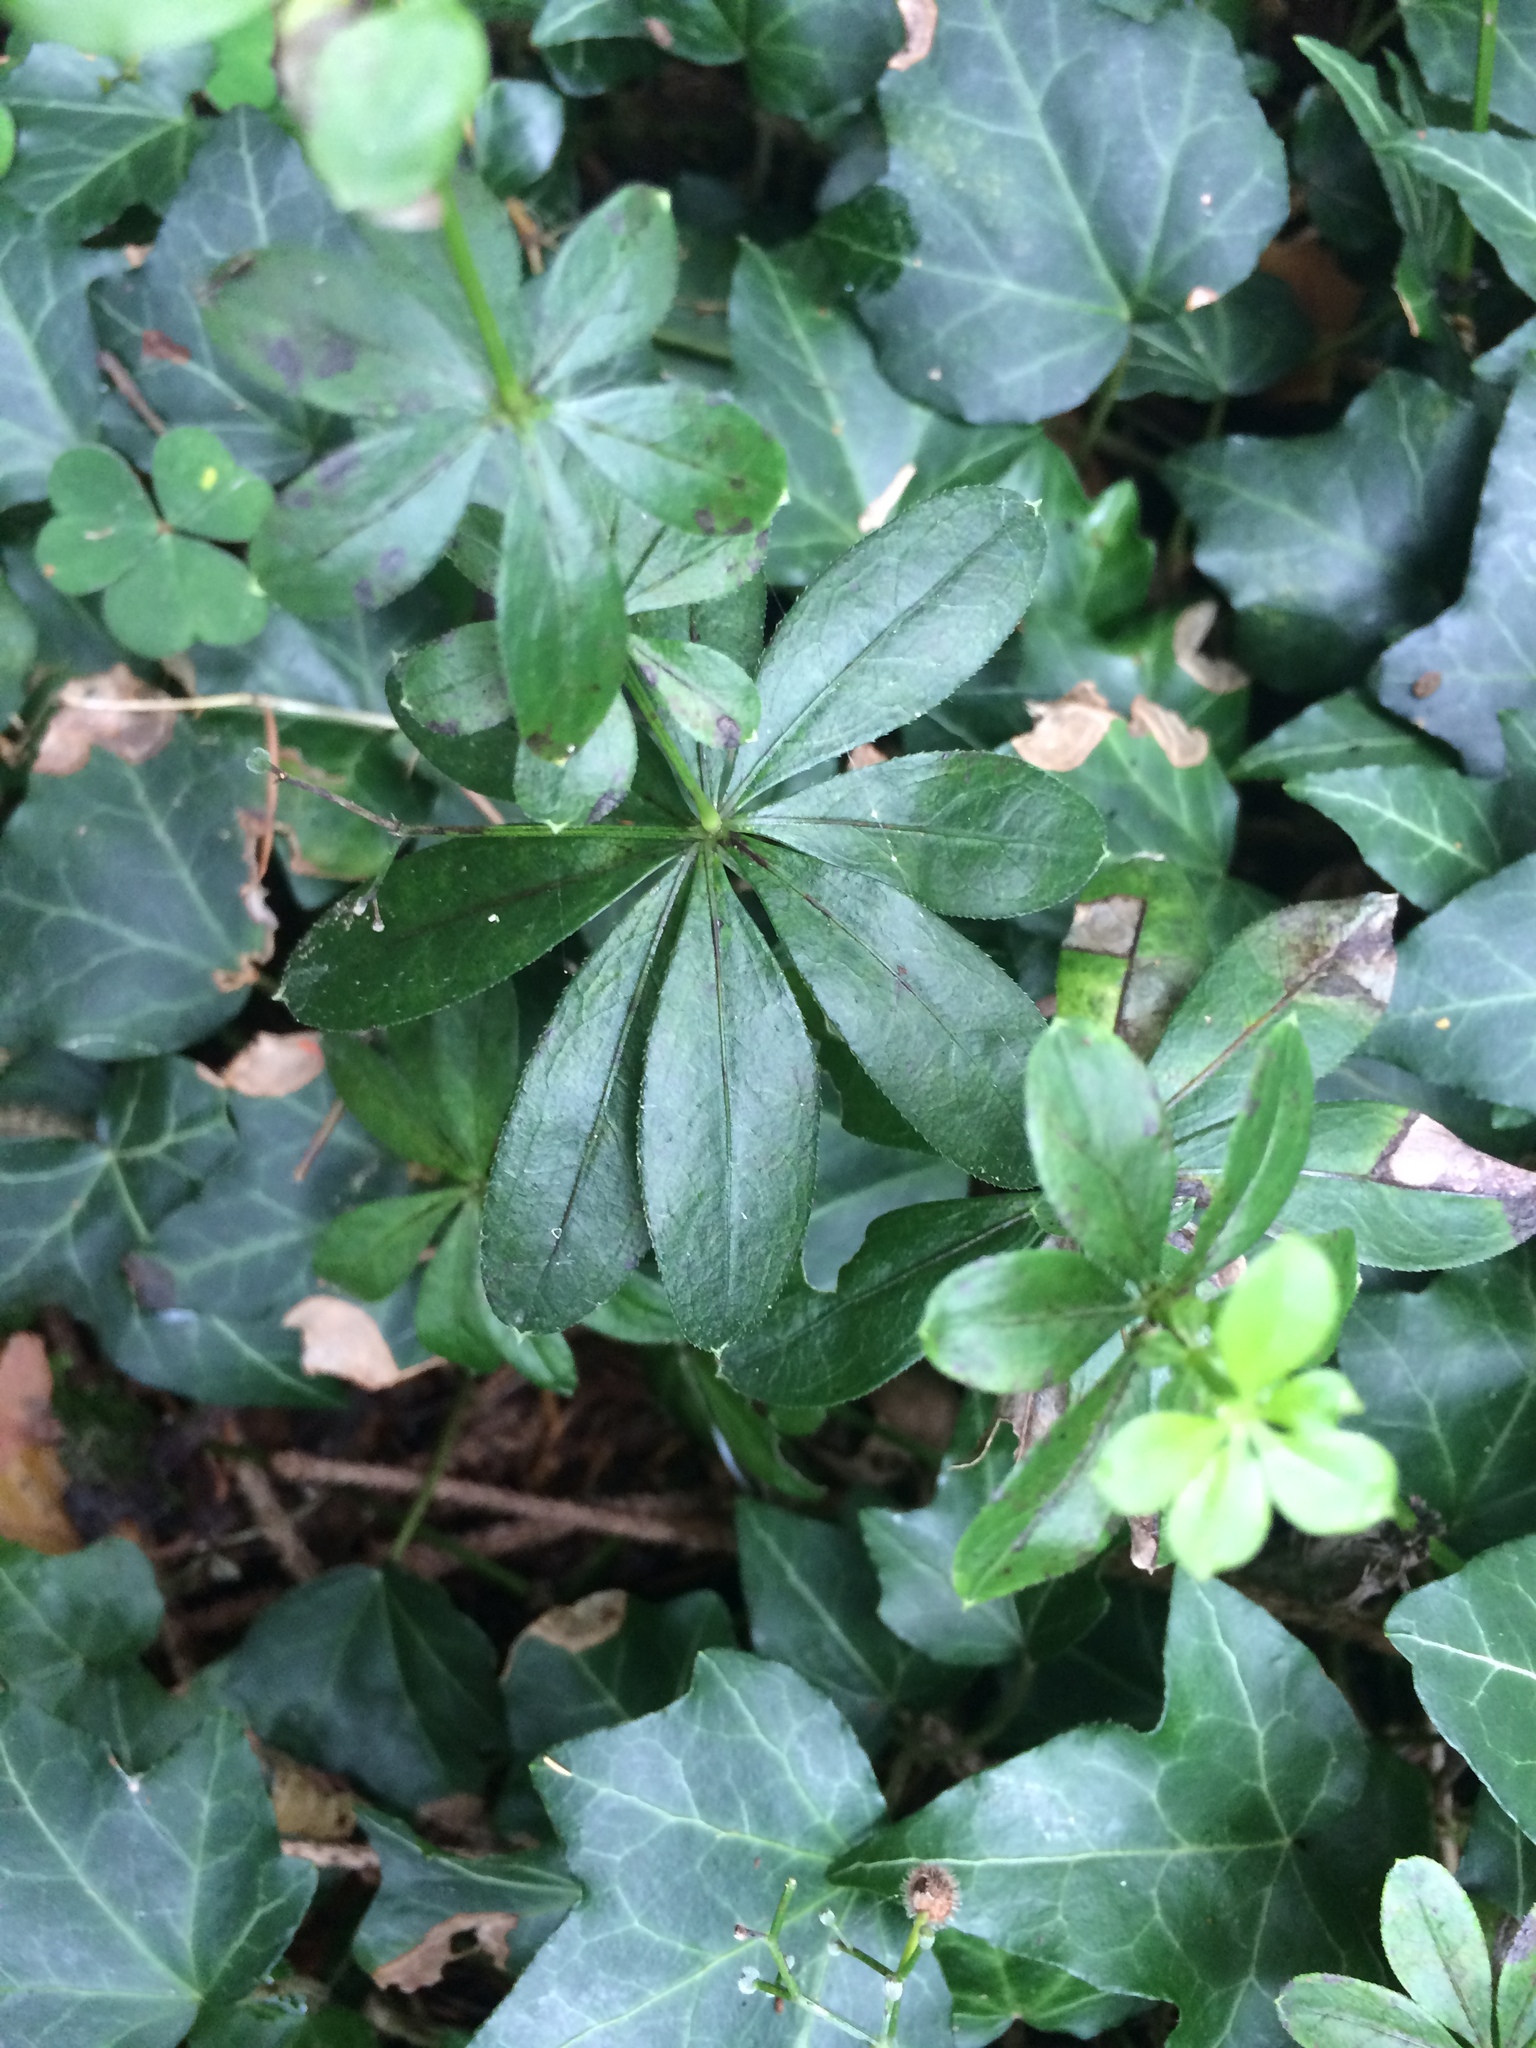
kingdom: Plantae
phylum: Tracheophyta
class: Magnoliopsida
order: Gentianales
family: Rubiaceae
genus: Galium
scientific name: Galium odoratum
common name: Sweet woodruff
